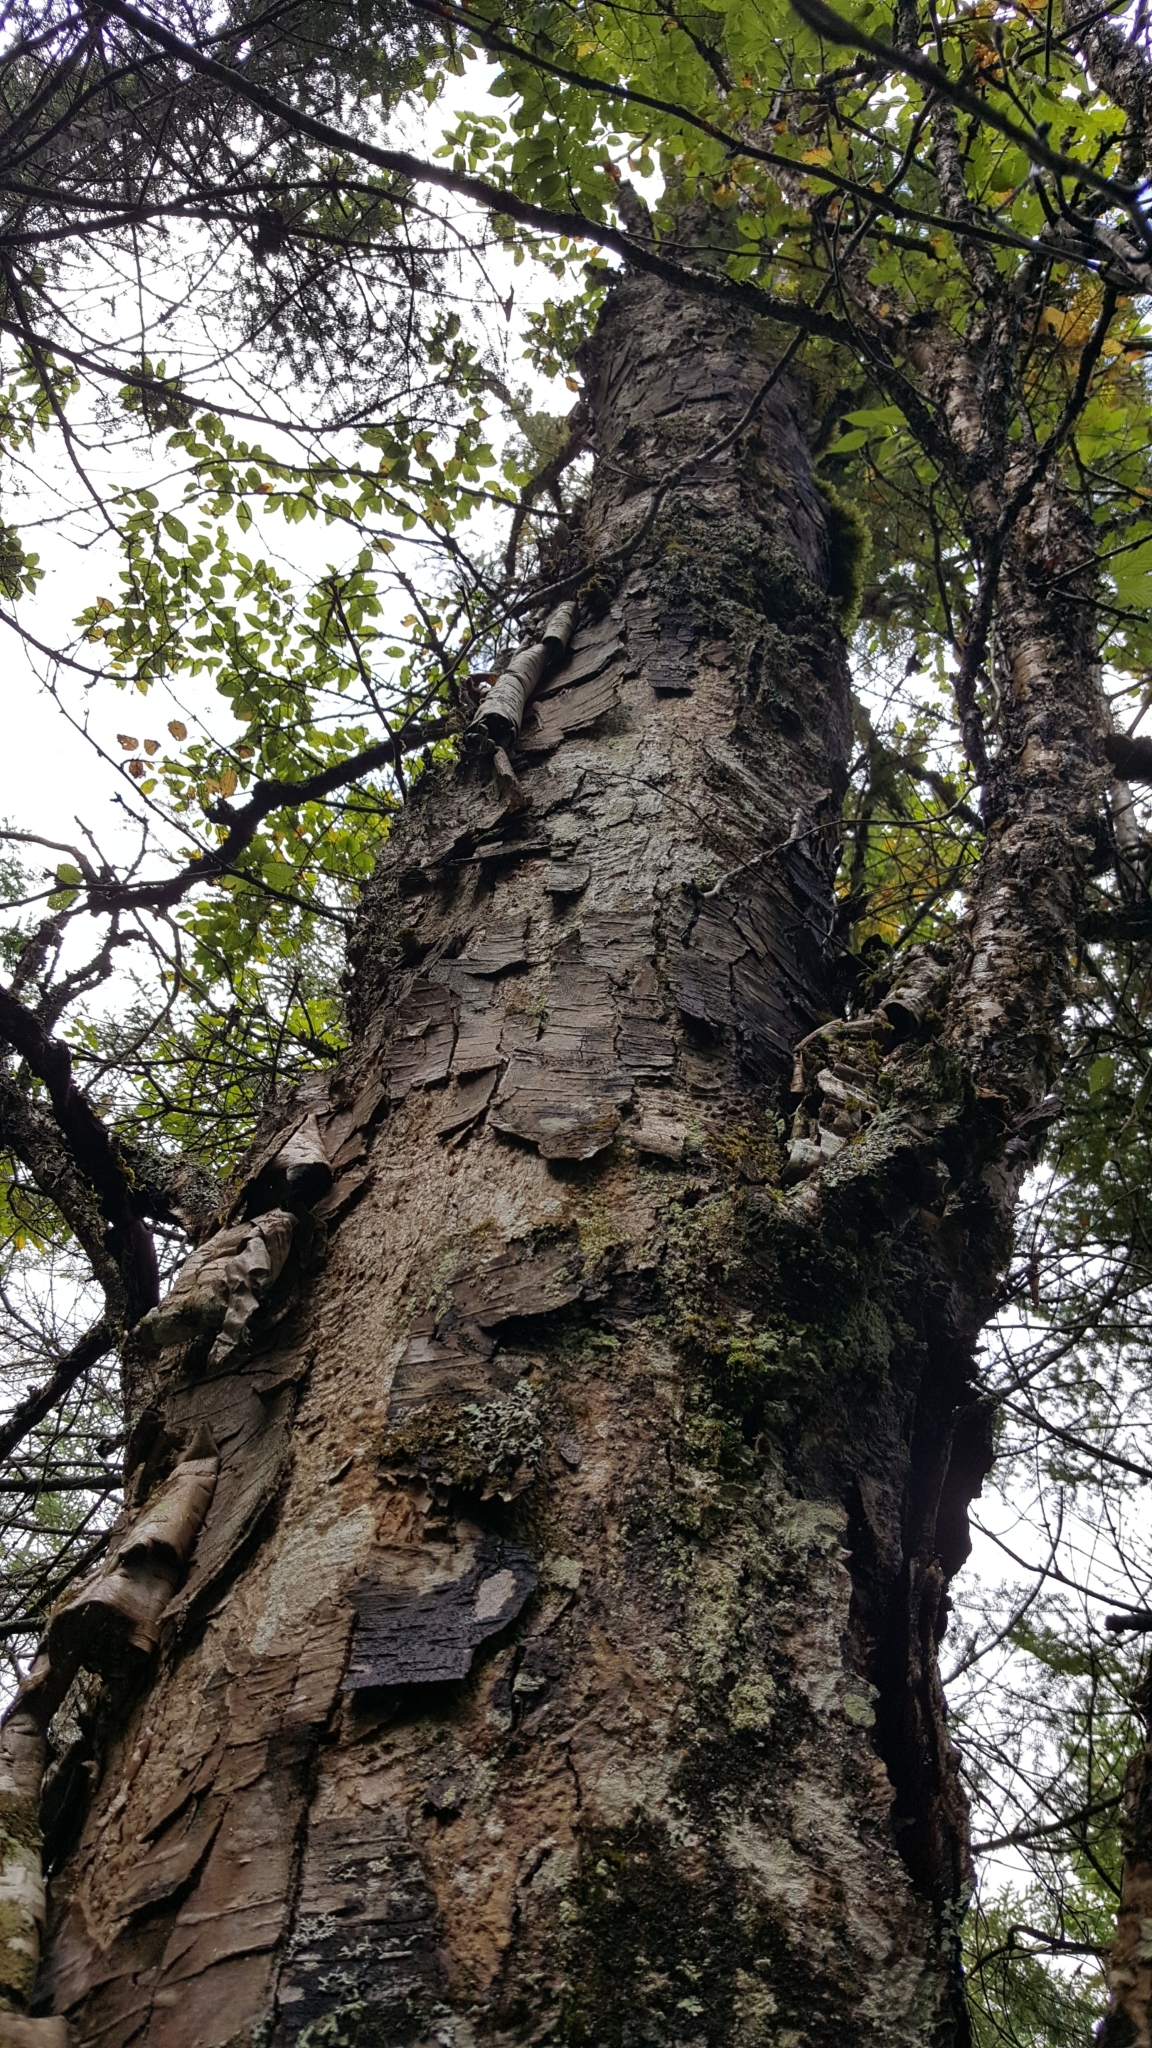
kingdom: Plantae
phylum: Tracheophyta
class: Magnoliopsida
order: Fagales
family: Betulaceae
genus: Betula
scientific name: Betula papyrifera
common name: Paper birch
